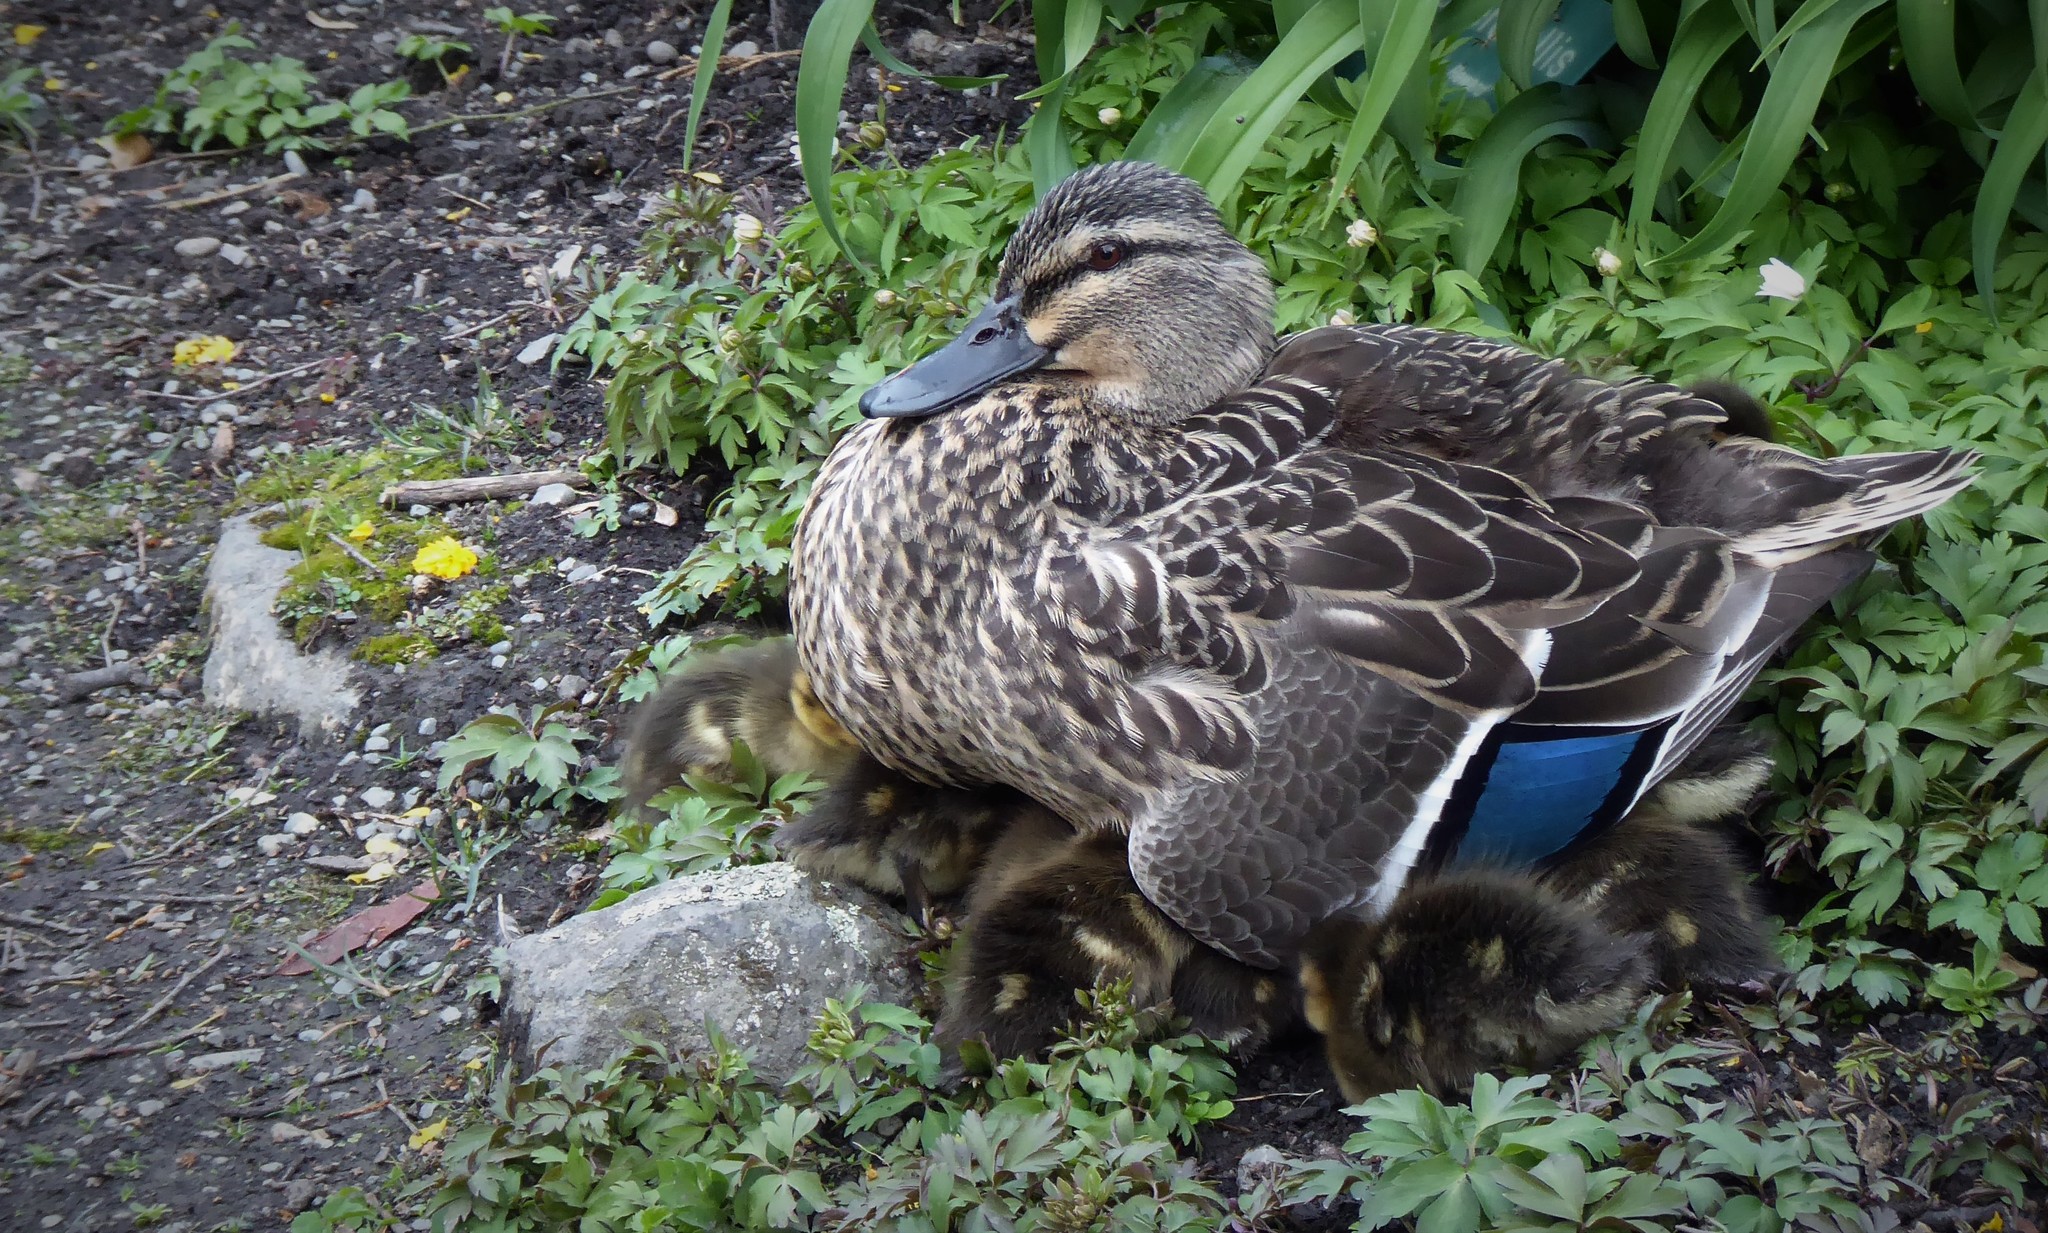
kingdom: Animalia
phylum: Chordata
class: Aves
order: Anseriformes
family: Anatidae
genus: Anas
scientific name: Anas platyrhynchos
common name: Mallard
